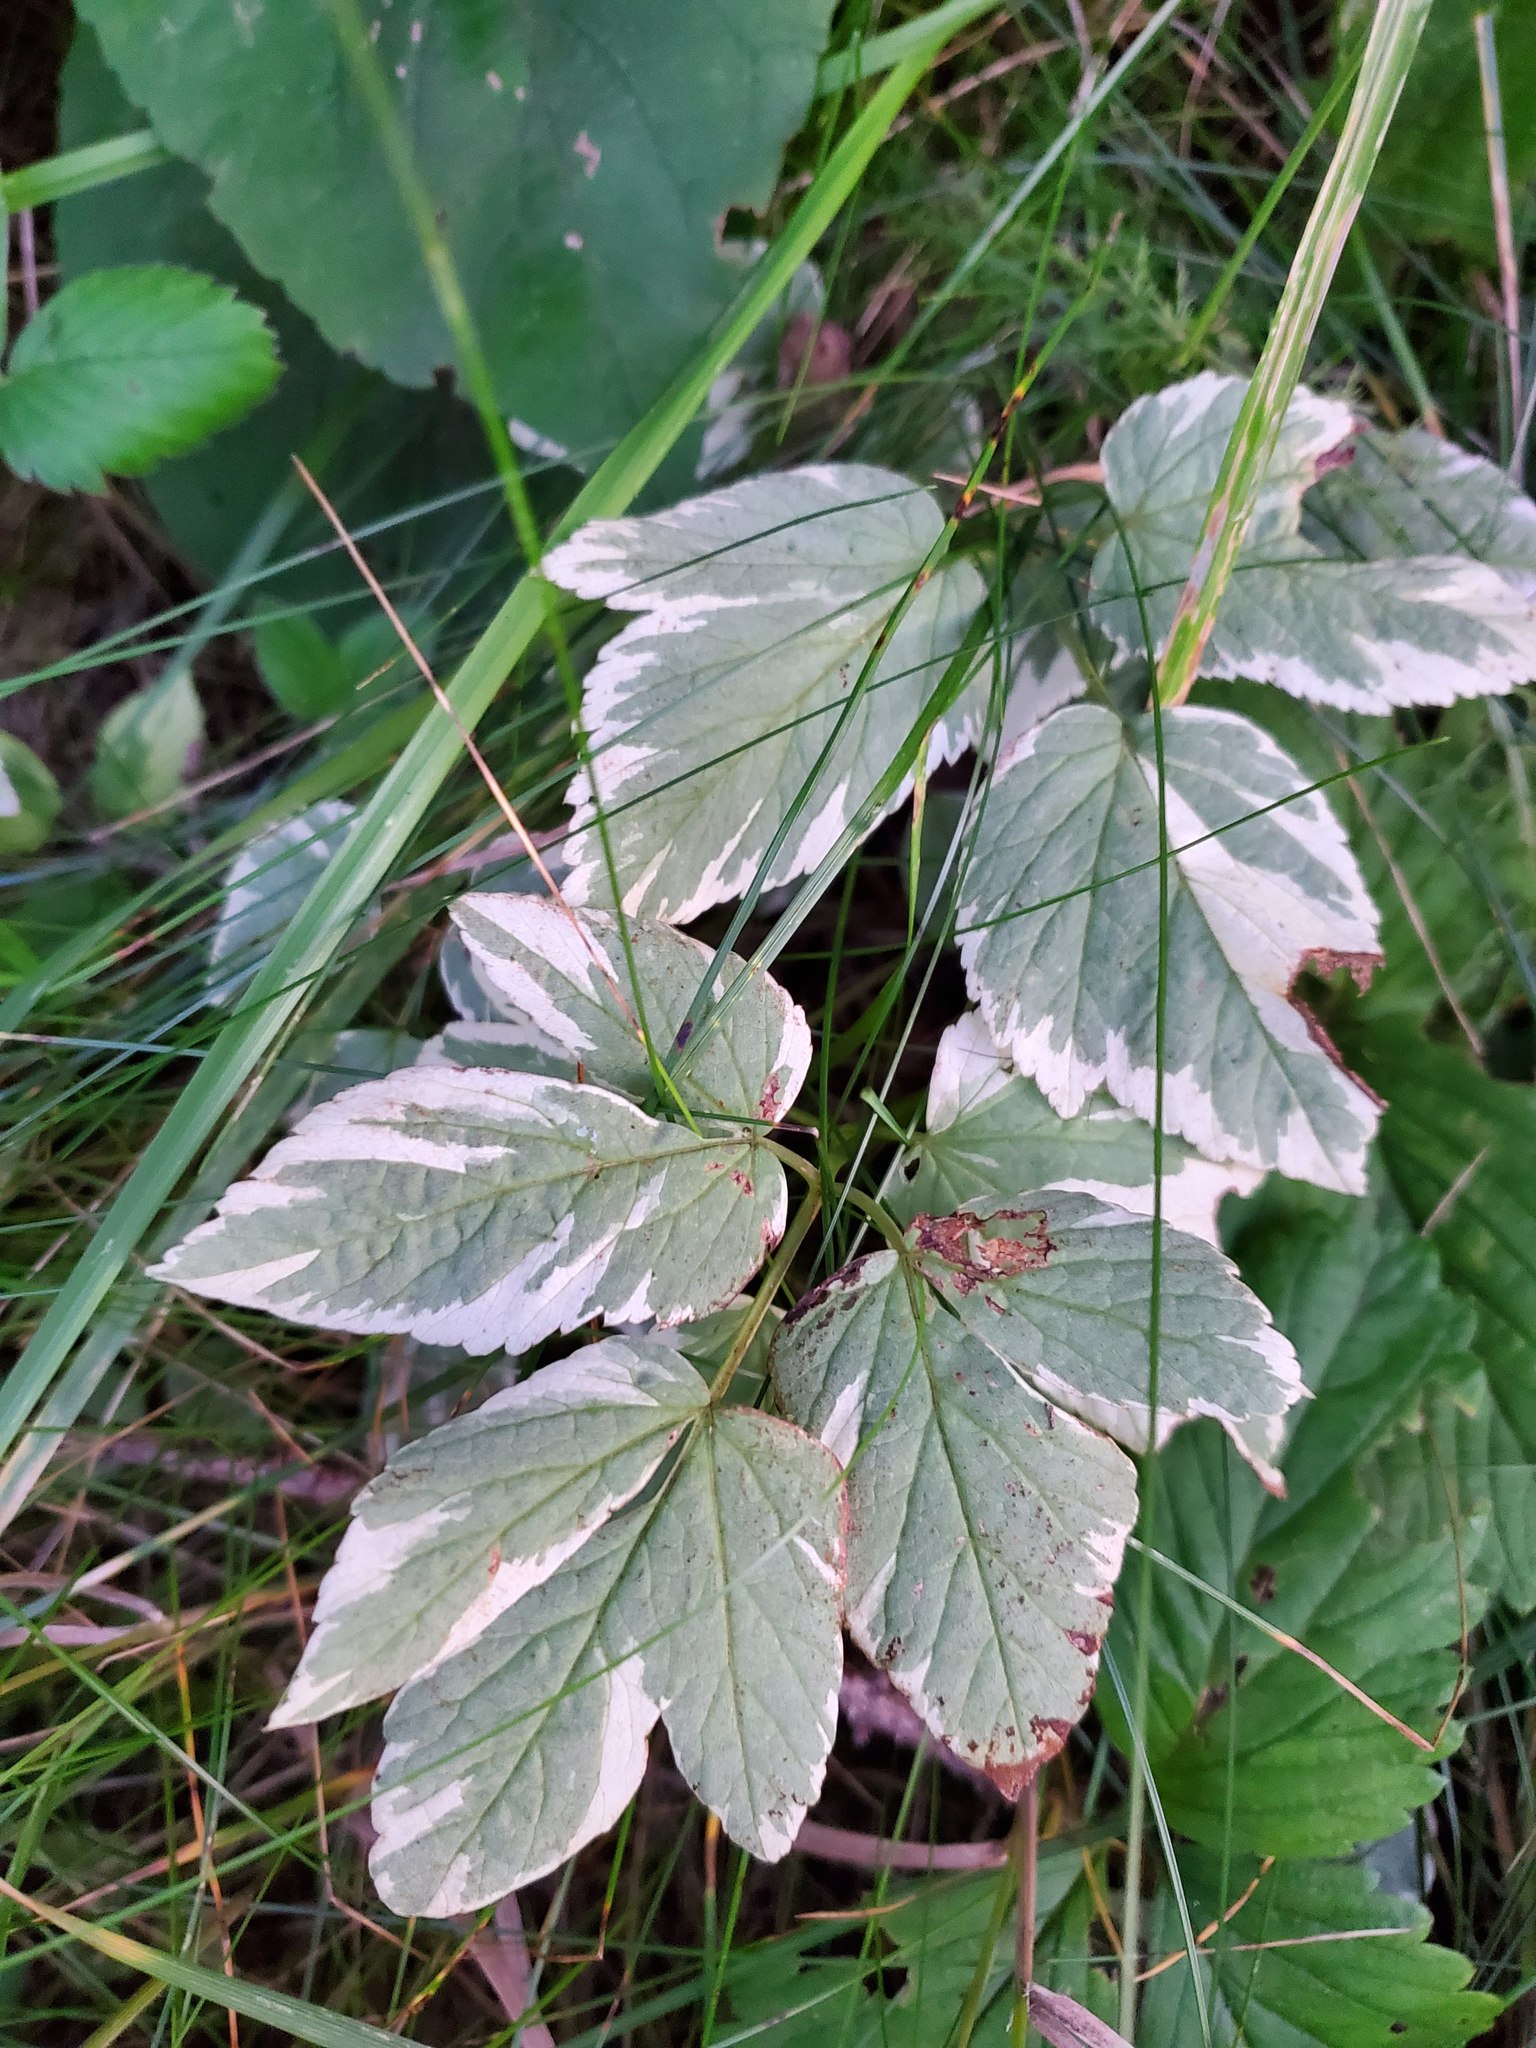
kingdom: Plantae
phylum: Tracheophyta
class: Magnoliopsida
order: Apiales
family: Apiaceae
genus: Aegopodium
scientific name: Aegopodium podagraria
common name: Ground-elder
